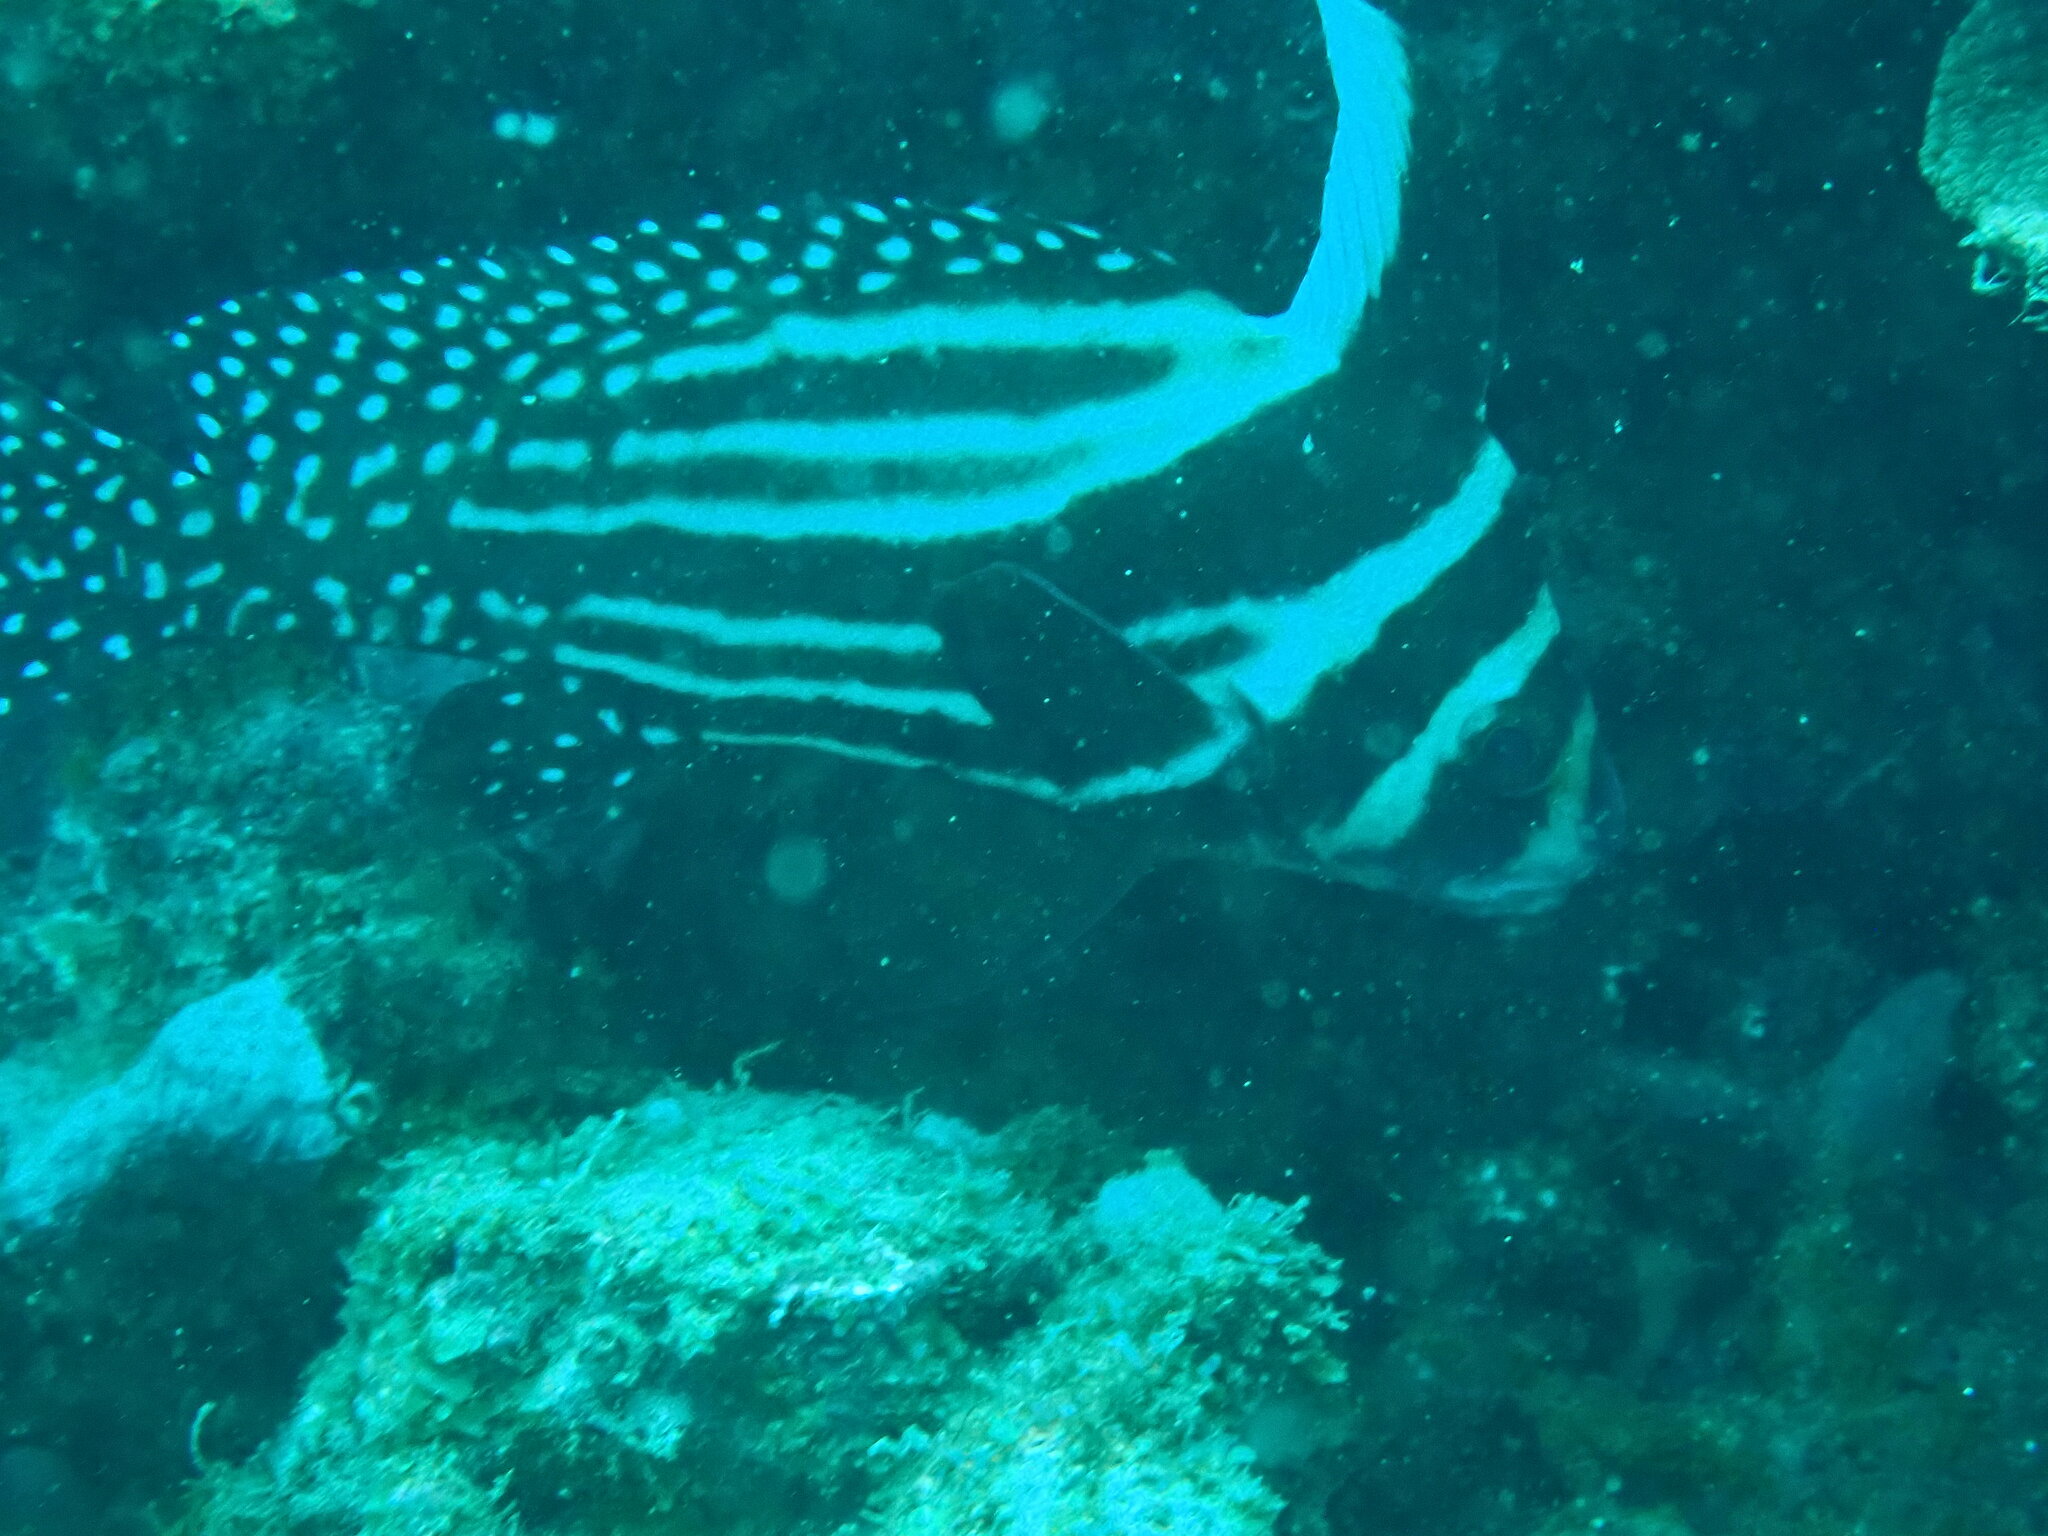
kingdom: Animalia
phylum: Chordata
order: Perciformes
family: Sciaenidae
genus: Equetus
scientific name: Equetus punctatus
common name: Spotted drum
